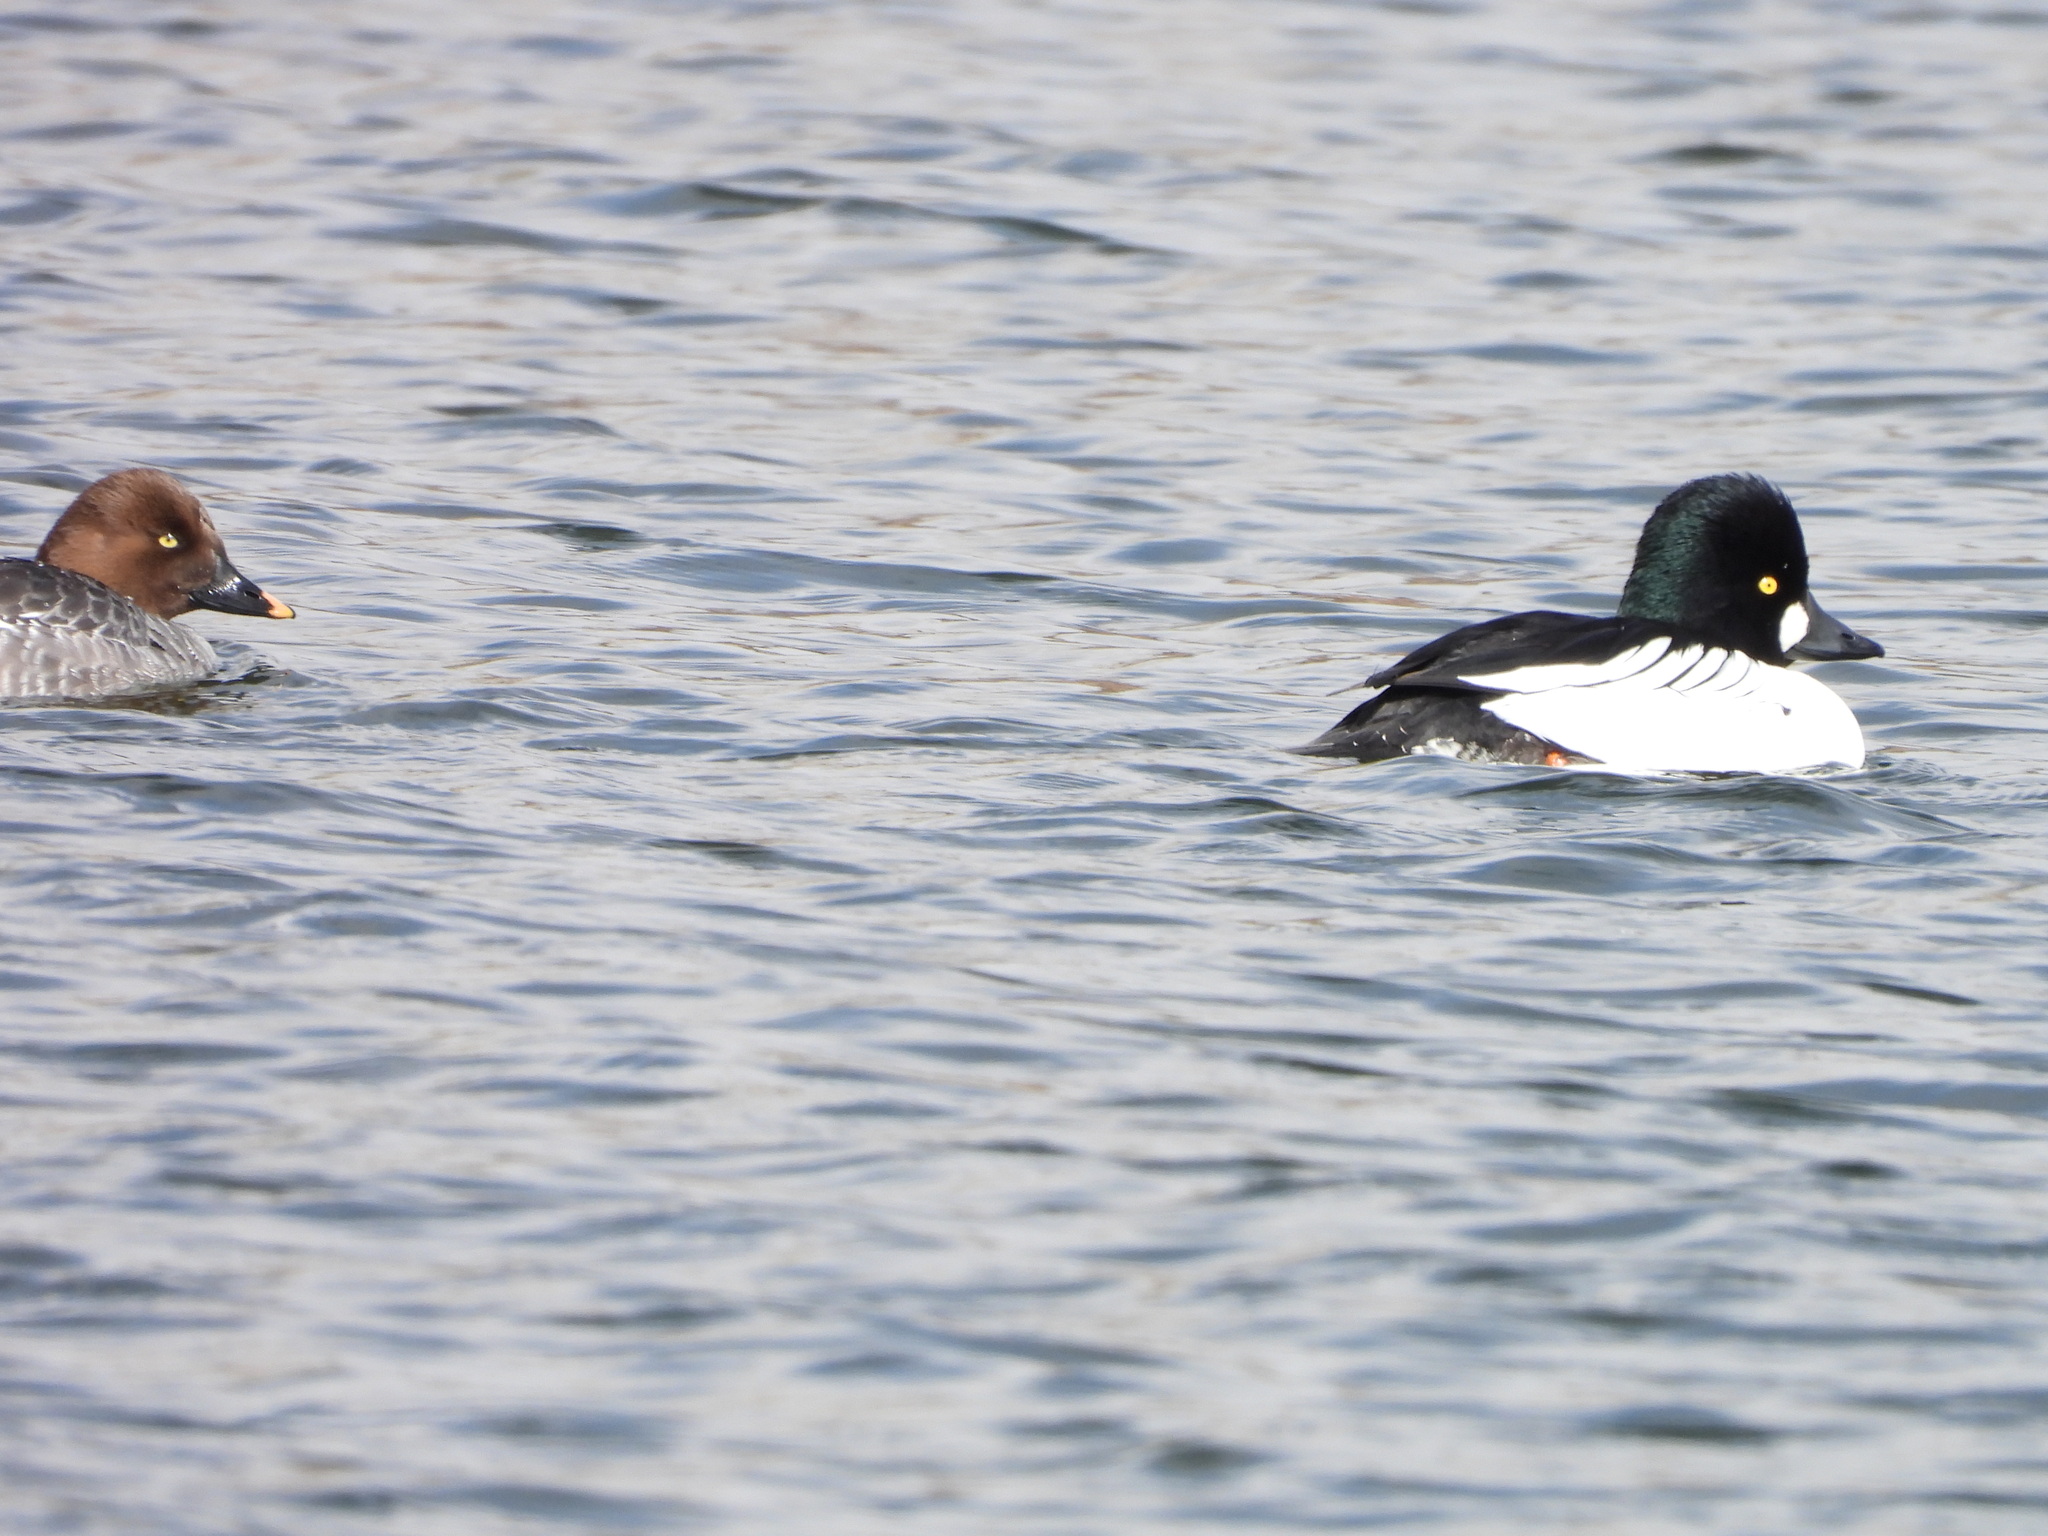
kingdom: Animalia
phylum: Chordata
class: Aves
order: Anseriformes
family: Anatidae
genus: Bucephala
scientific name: Bucephala clangula
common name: Common goldeneye
